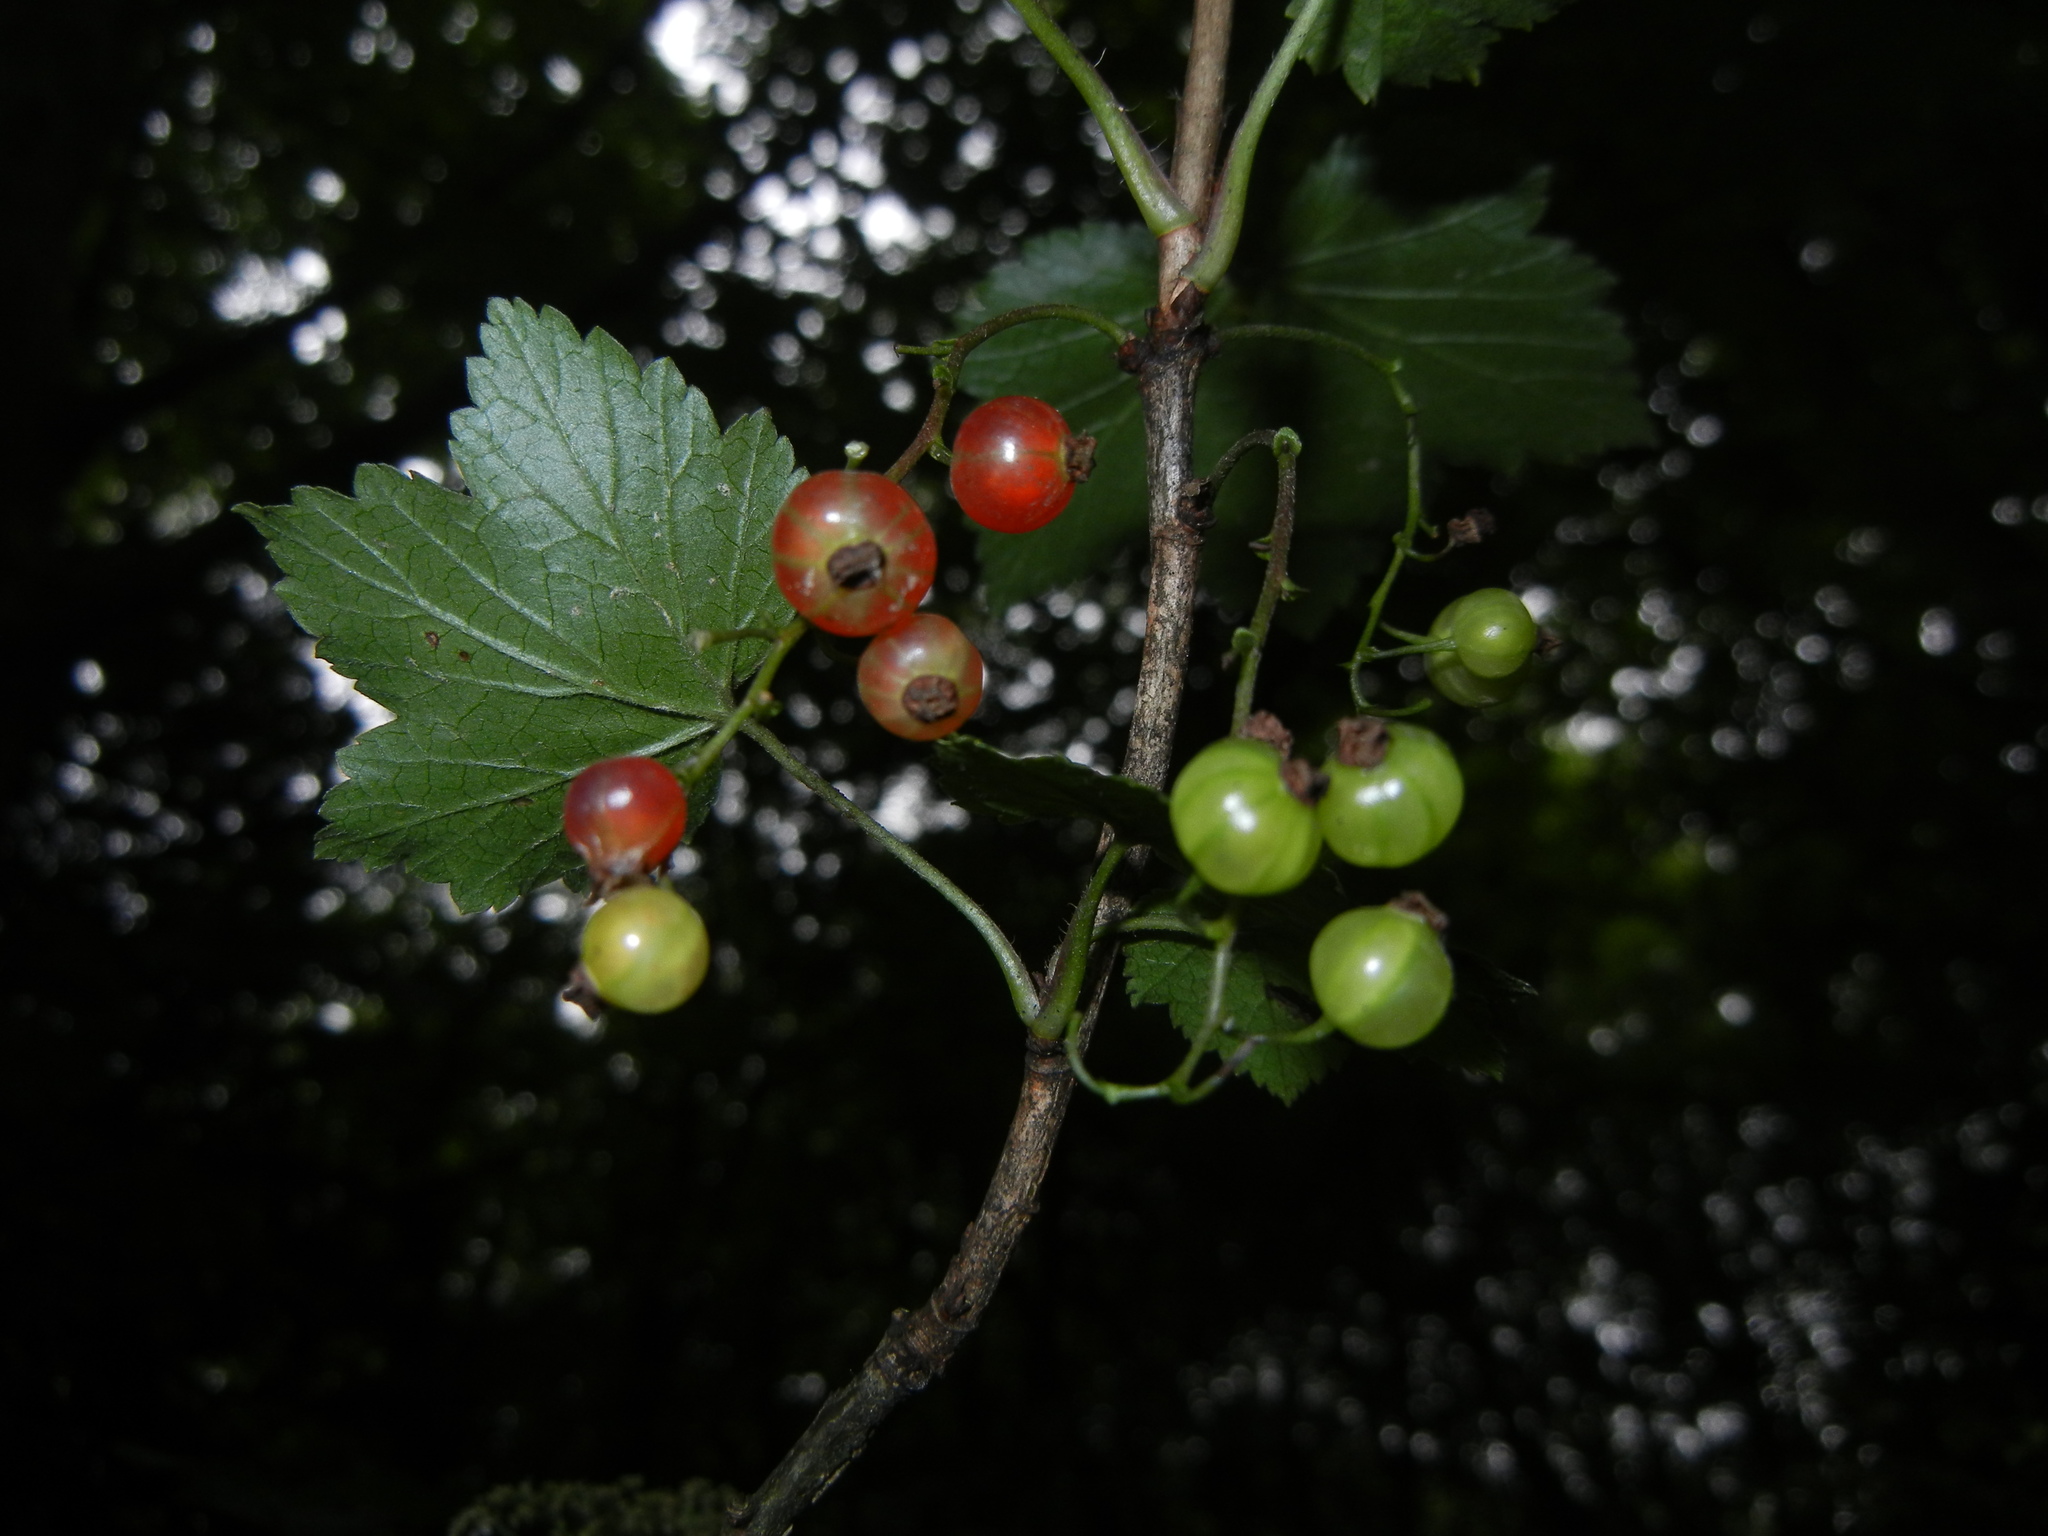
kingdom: Plantae
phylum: Tracheophyta
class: Magnoliopsida
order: Saxifragales
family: Grossulariaceae
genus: Ribes
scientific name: Ribes rubrum
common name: Red currant
